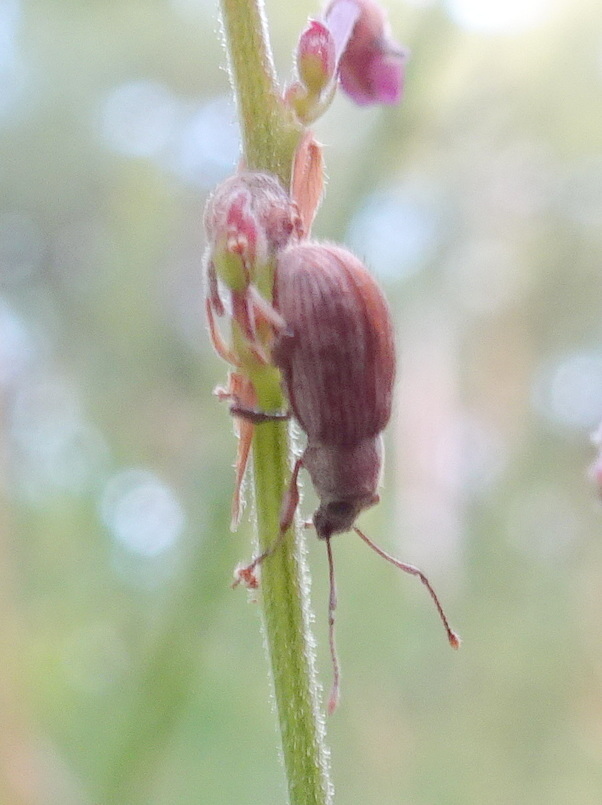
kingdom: Animalia
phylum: Arthropoda
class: Insecta
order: Coleoptera
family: Curculionidae
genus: Cyrtepistomus
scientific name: Cyrtepistomus castaneus
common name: Weevil
